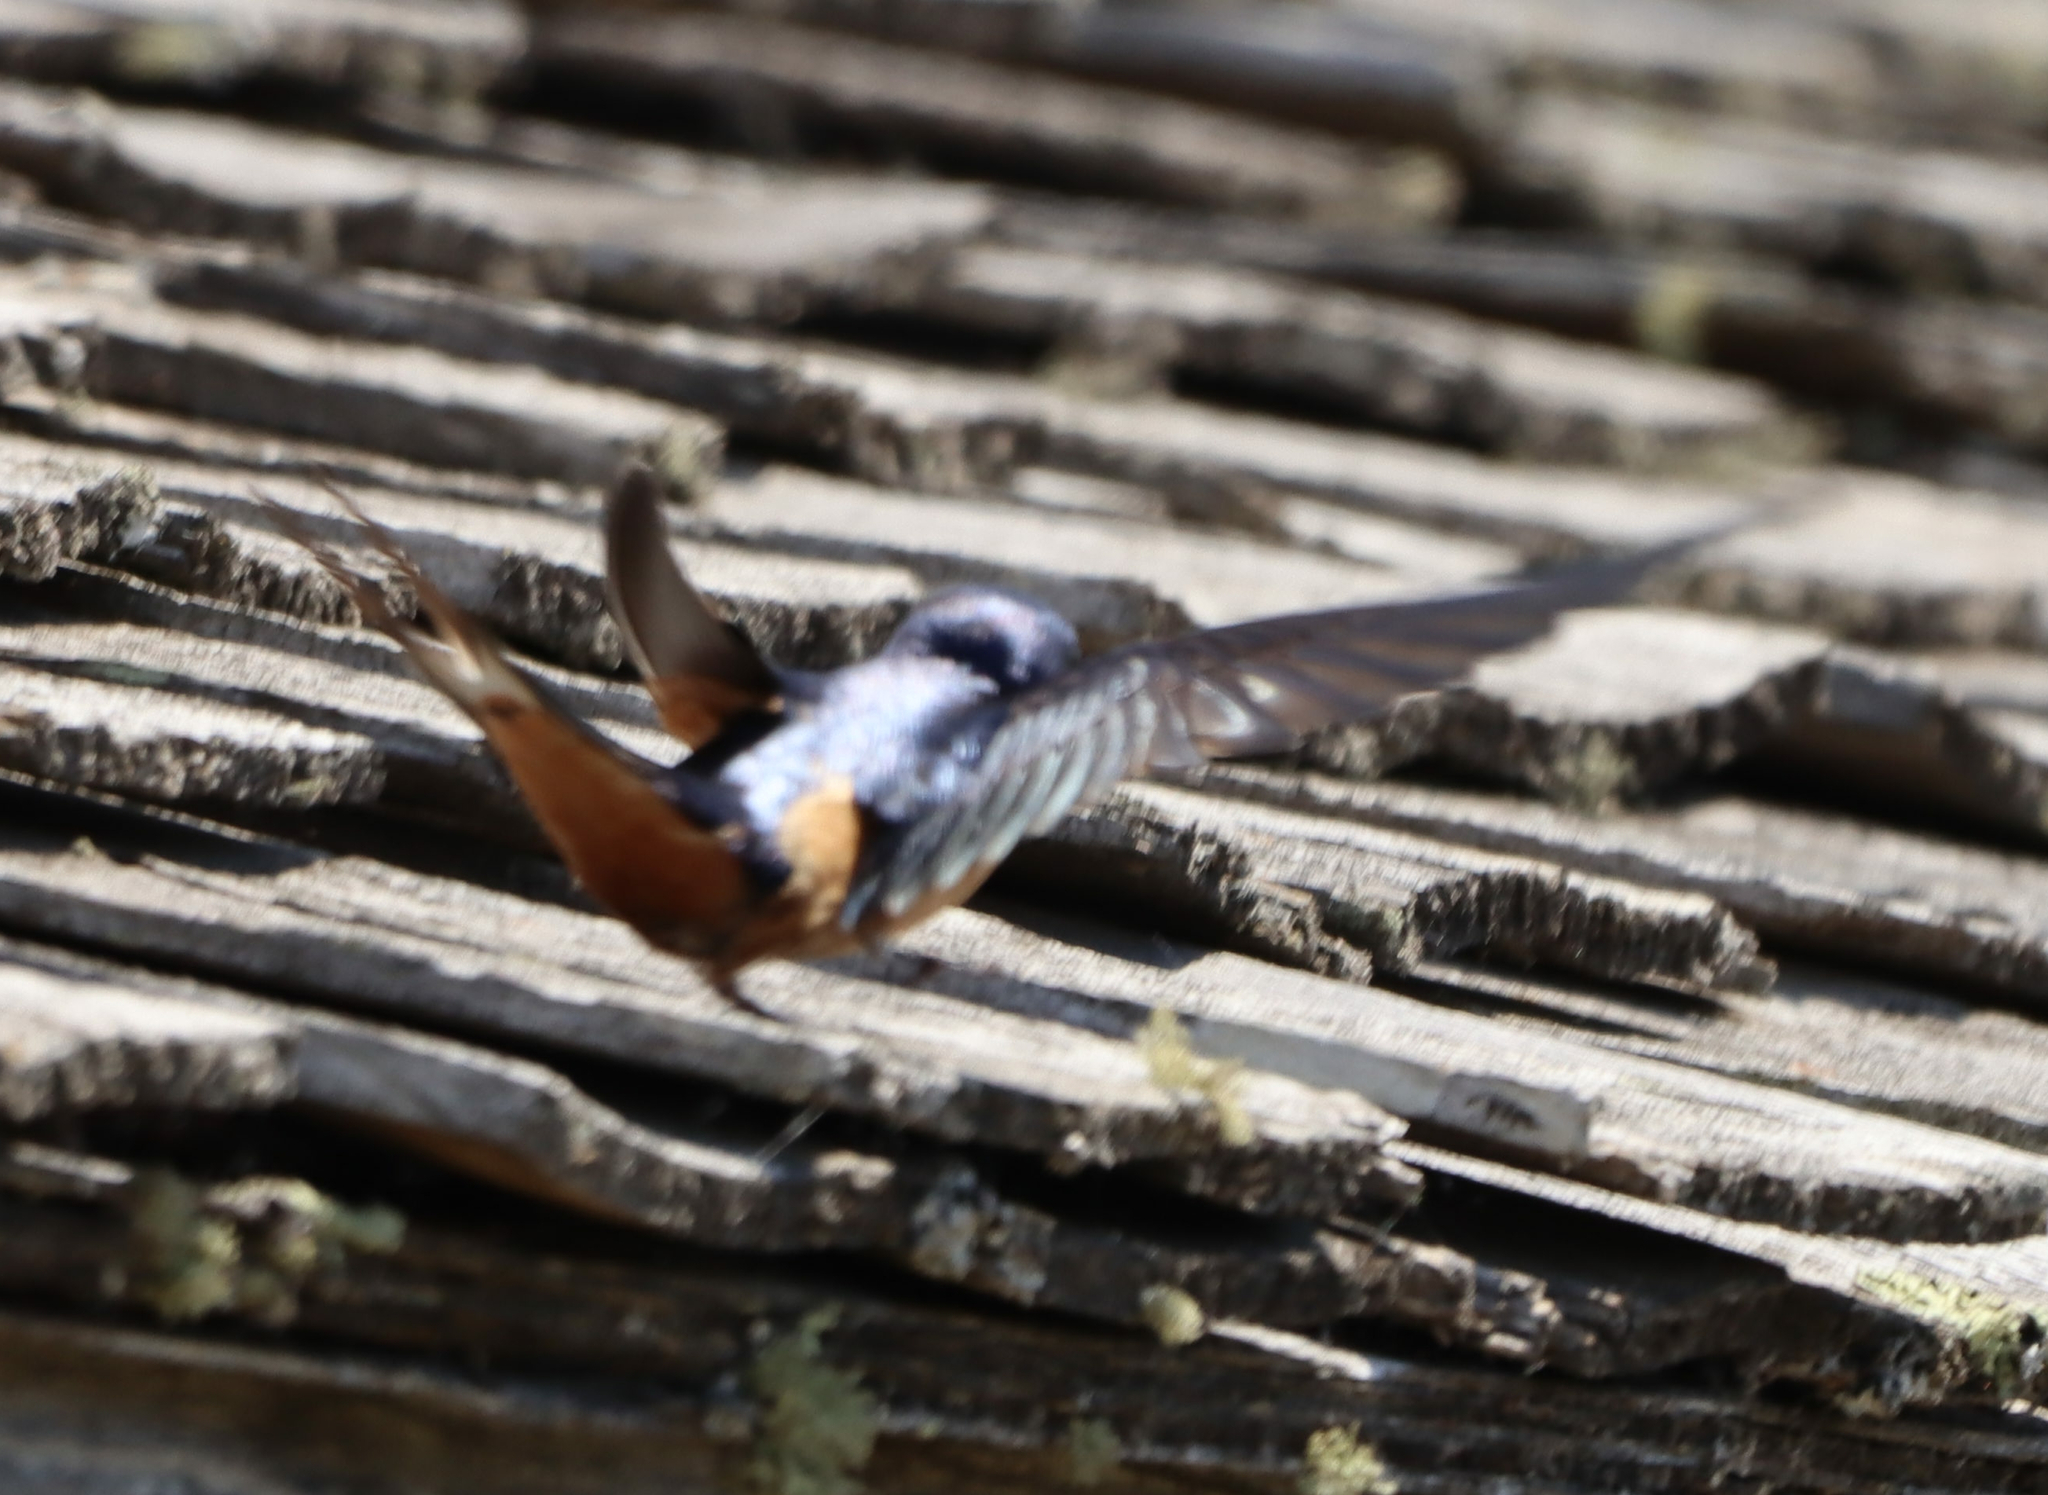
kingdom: Animalia
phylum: Chordata
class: Aves
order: Passeriformes
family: Hirundinidae
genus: Hirundo
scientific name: Hirundo rustica
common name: Barn swallow
